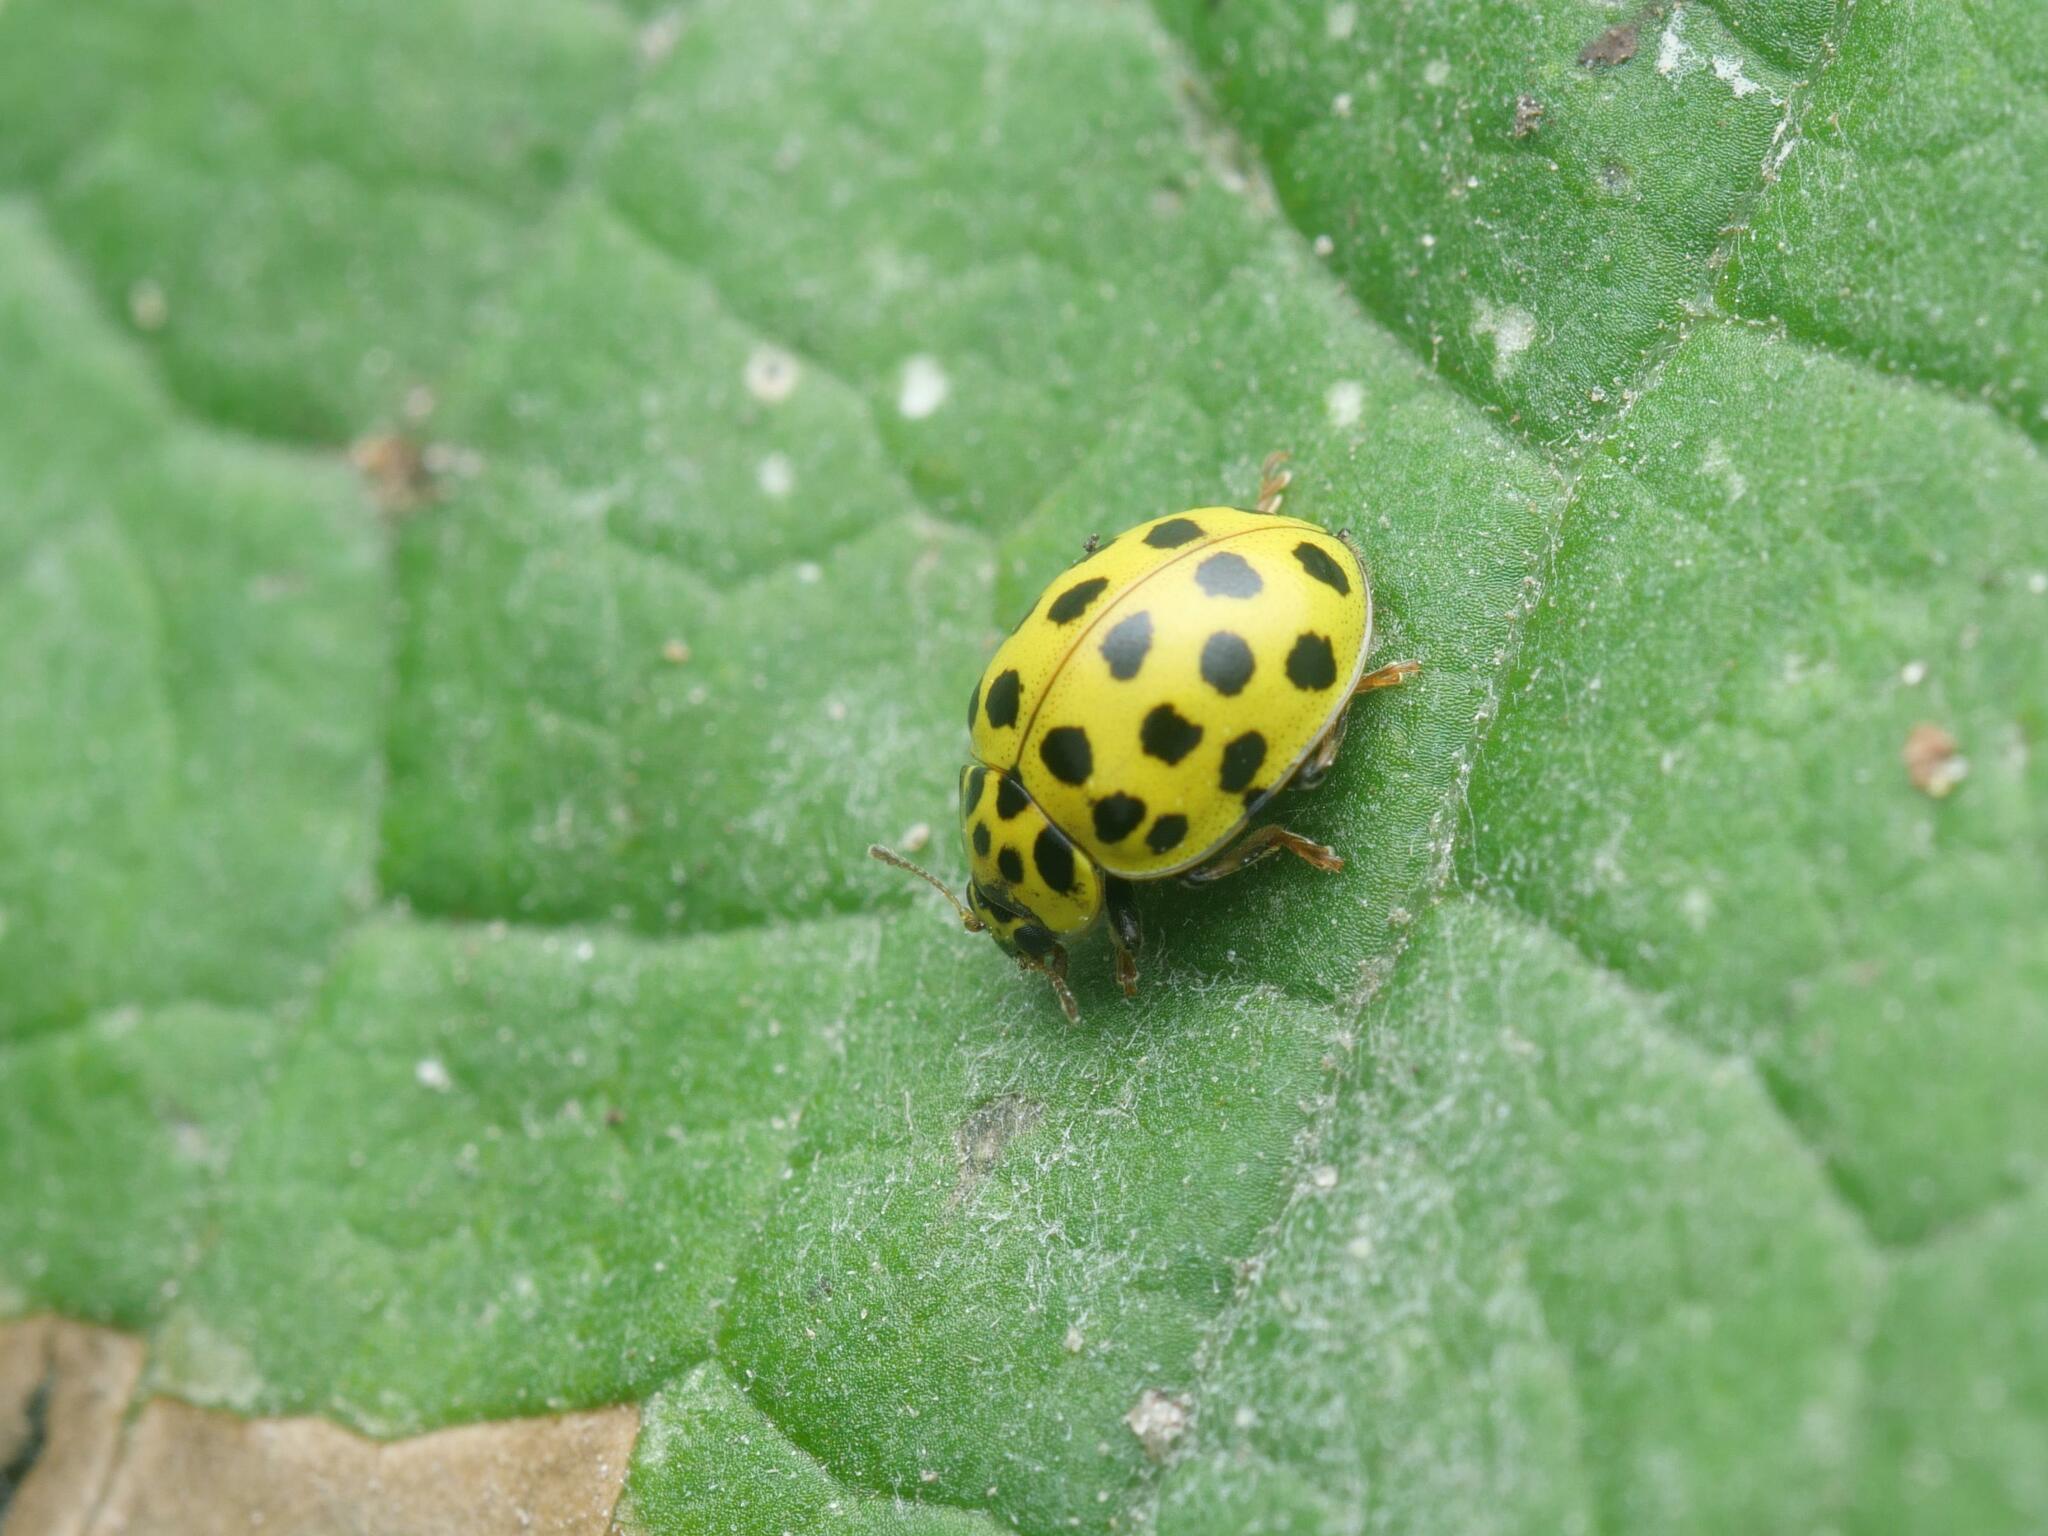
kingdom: Animalia
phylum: Arthropoda
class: Insecta
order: Coleoptera
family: Coccinellidae
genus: Psyllobora
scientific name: Psyllobora vigintiduopunctata
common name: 22-spot ladybird
